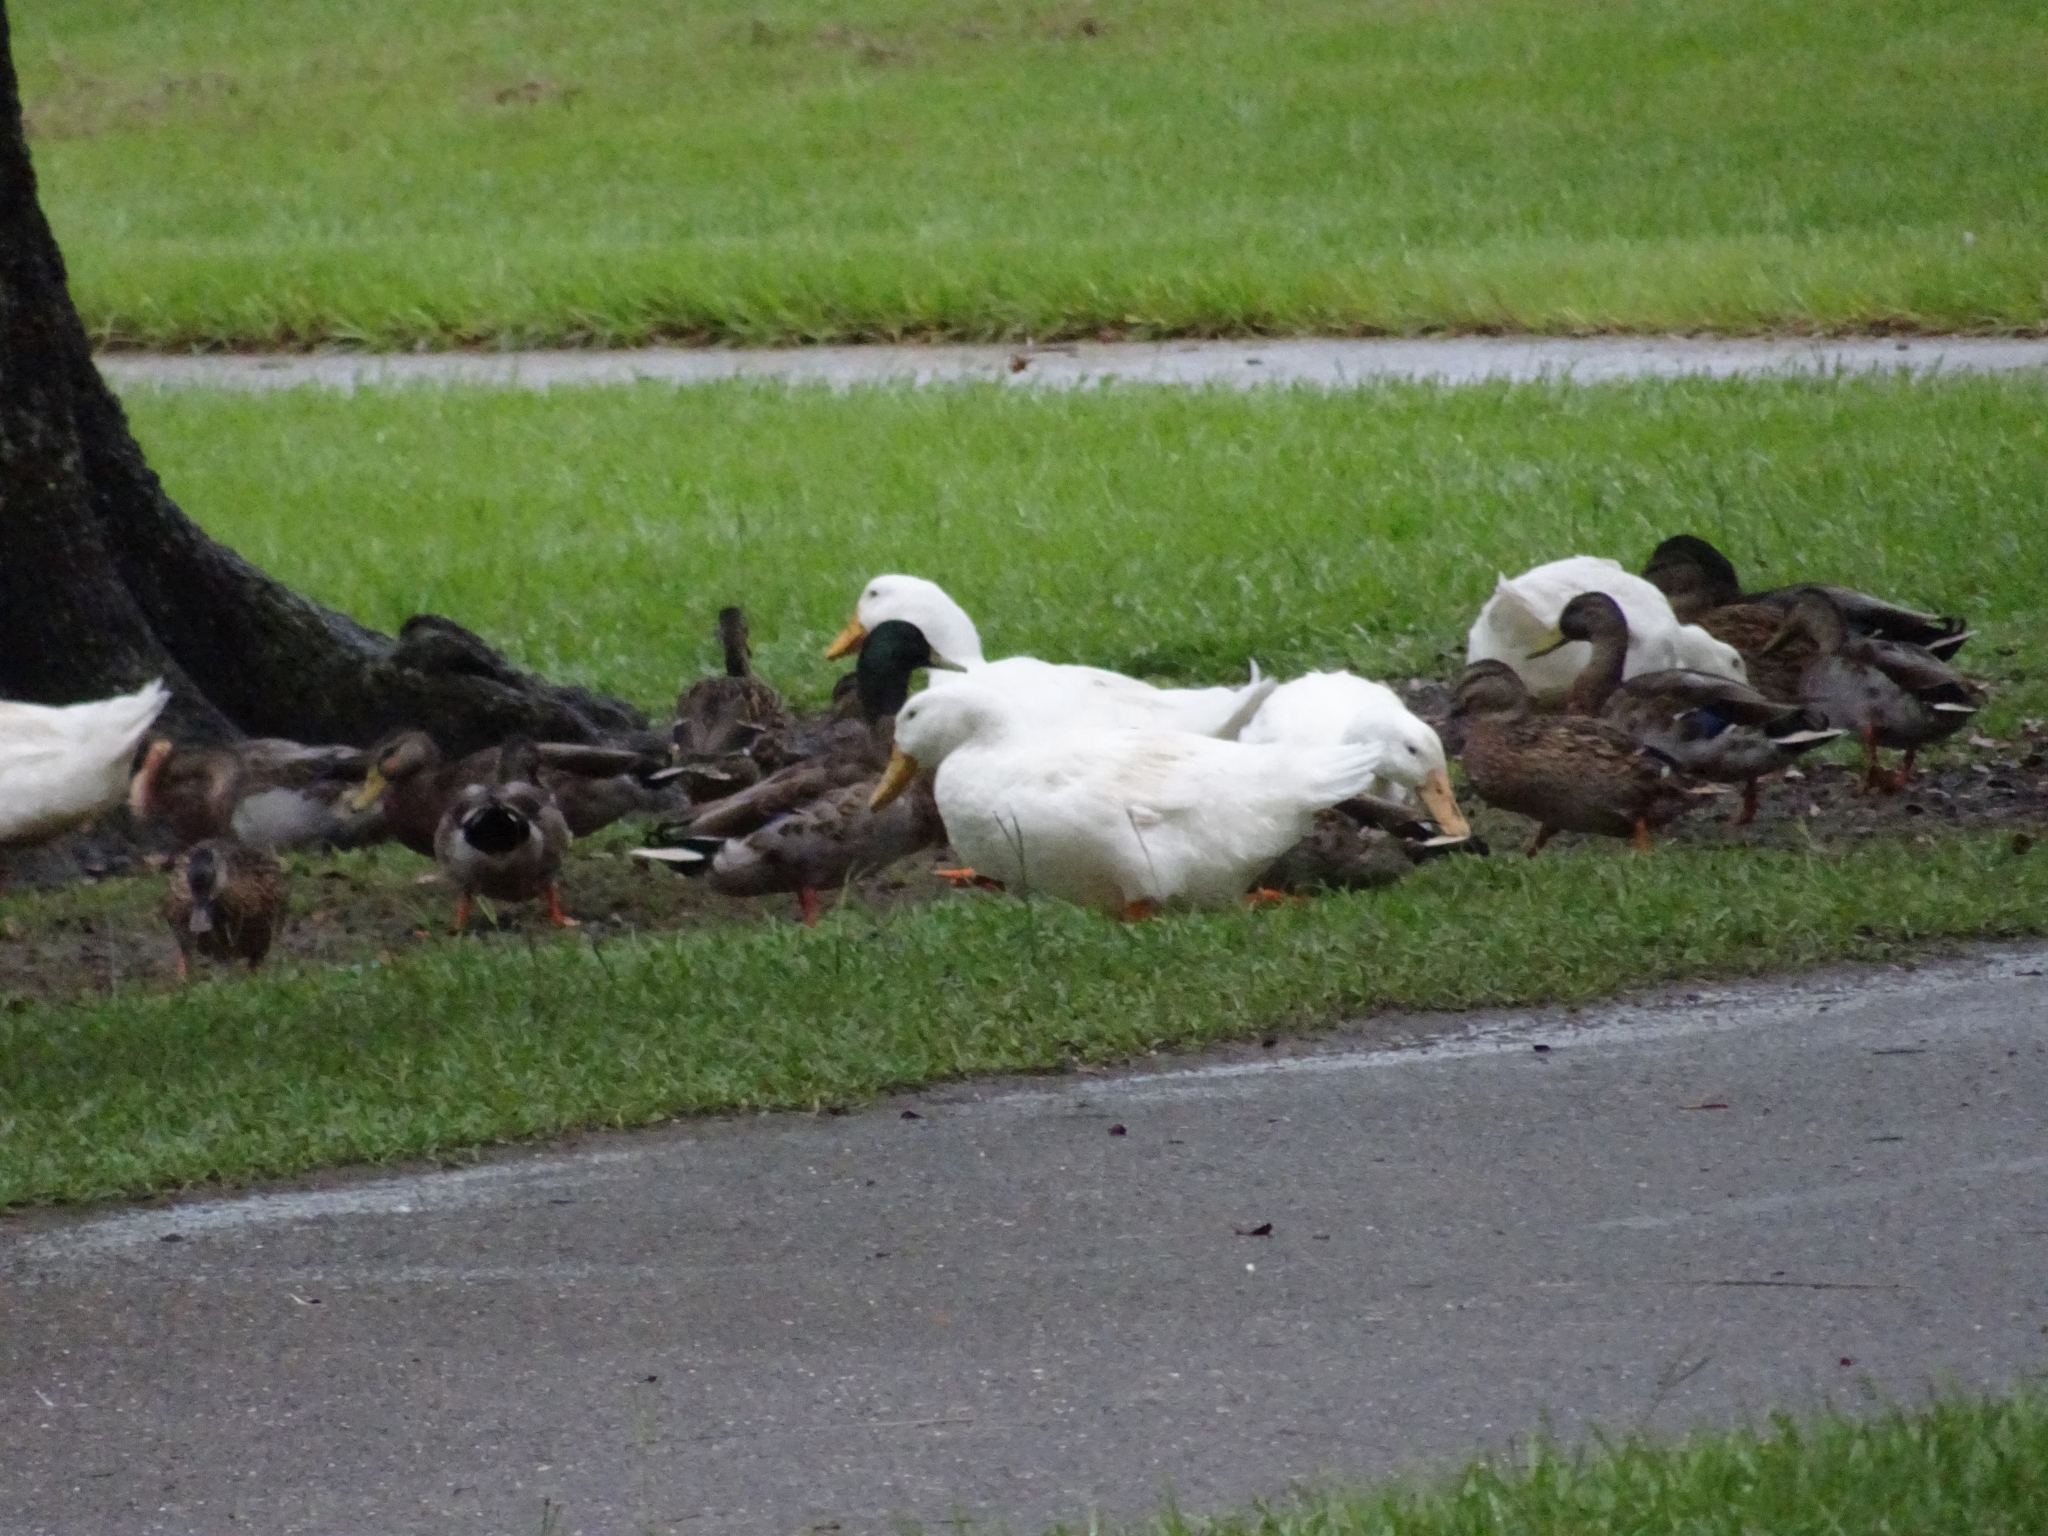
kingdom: Animalia
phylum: Chordata
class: Aves
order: Anseriformes
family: Anatidae
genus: Anas
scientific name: Anas platyrhynchos
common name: Mallard
